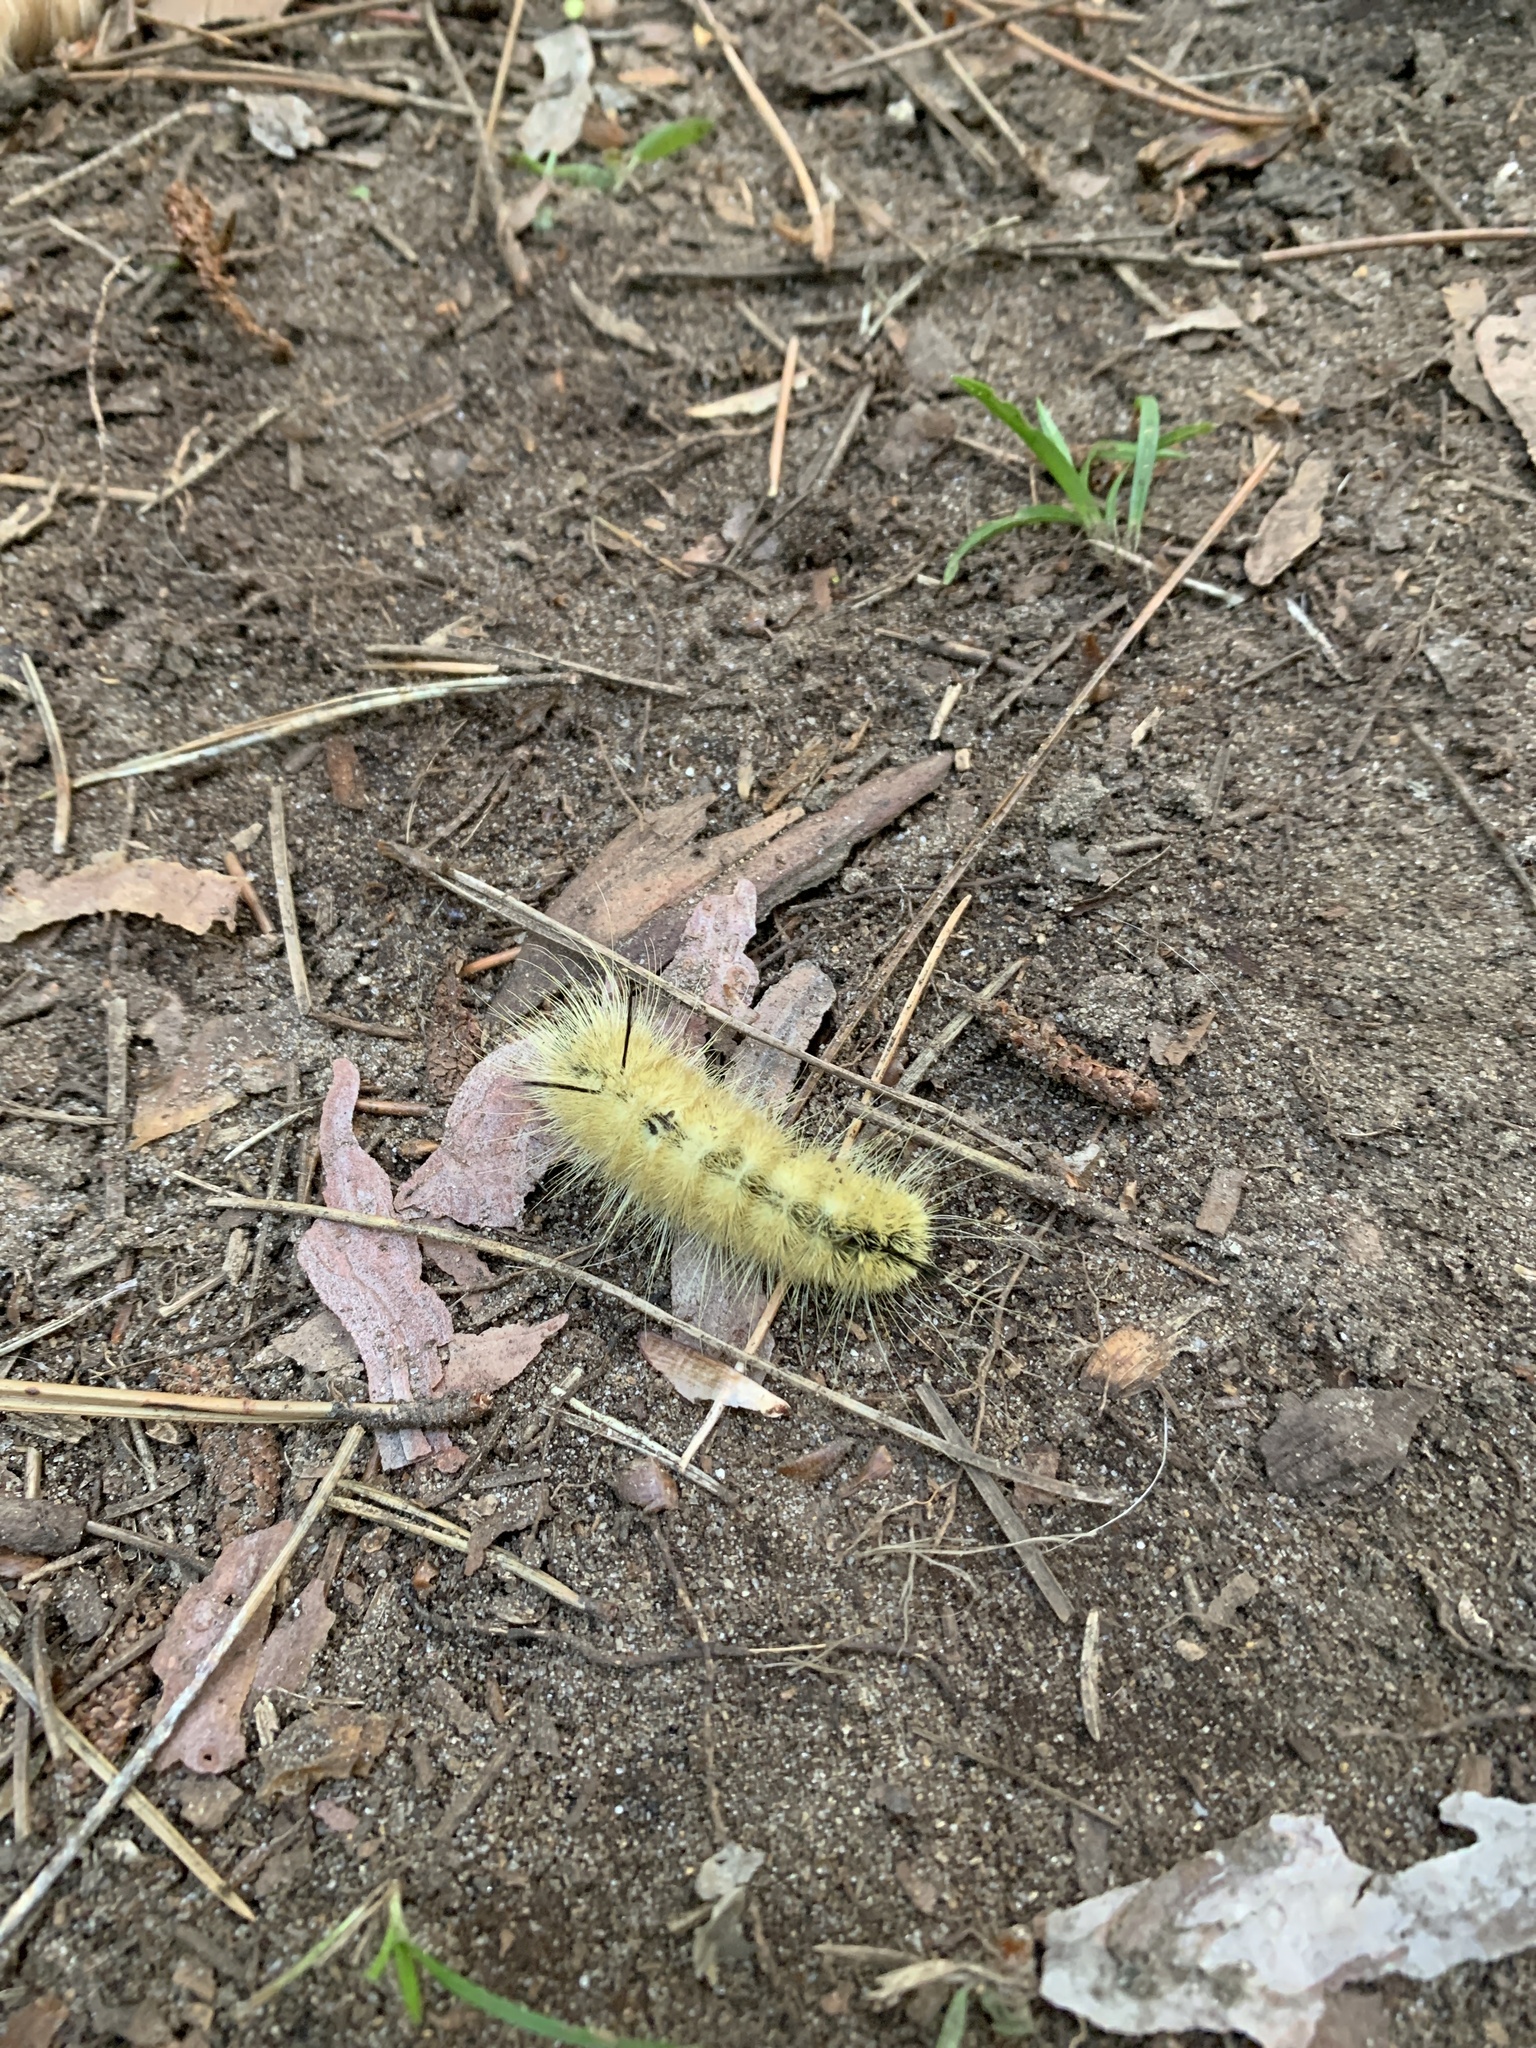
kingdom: Animalia
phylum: Arthropoda
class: Insecta
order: Lepidoptera
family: Noctuidae
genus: Acronicta
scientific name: Acronicta americana
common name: American dagger
